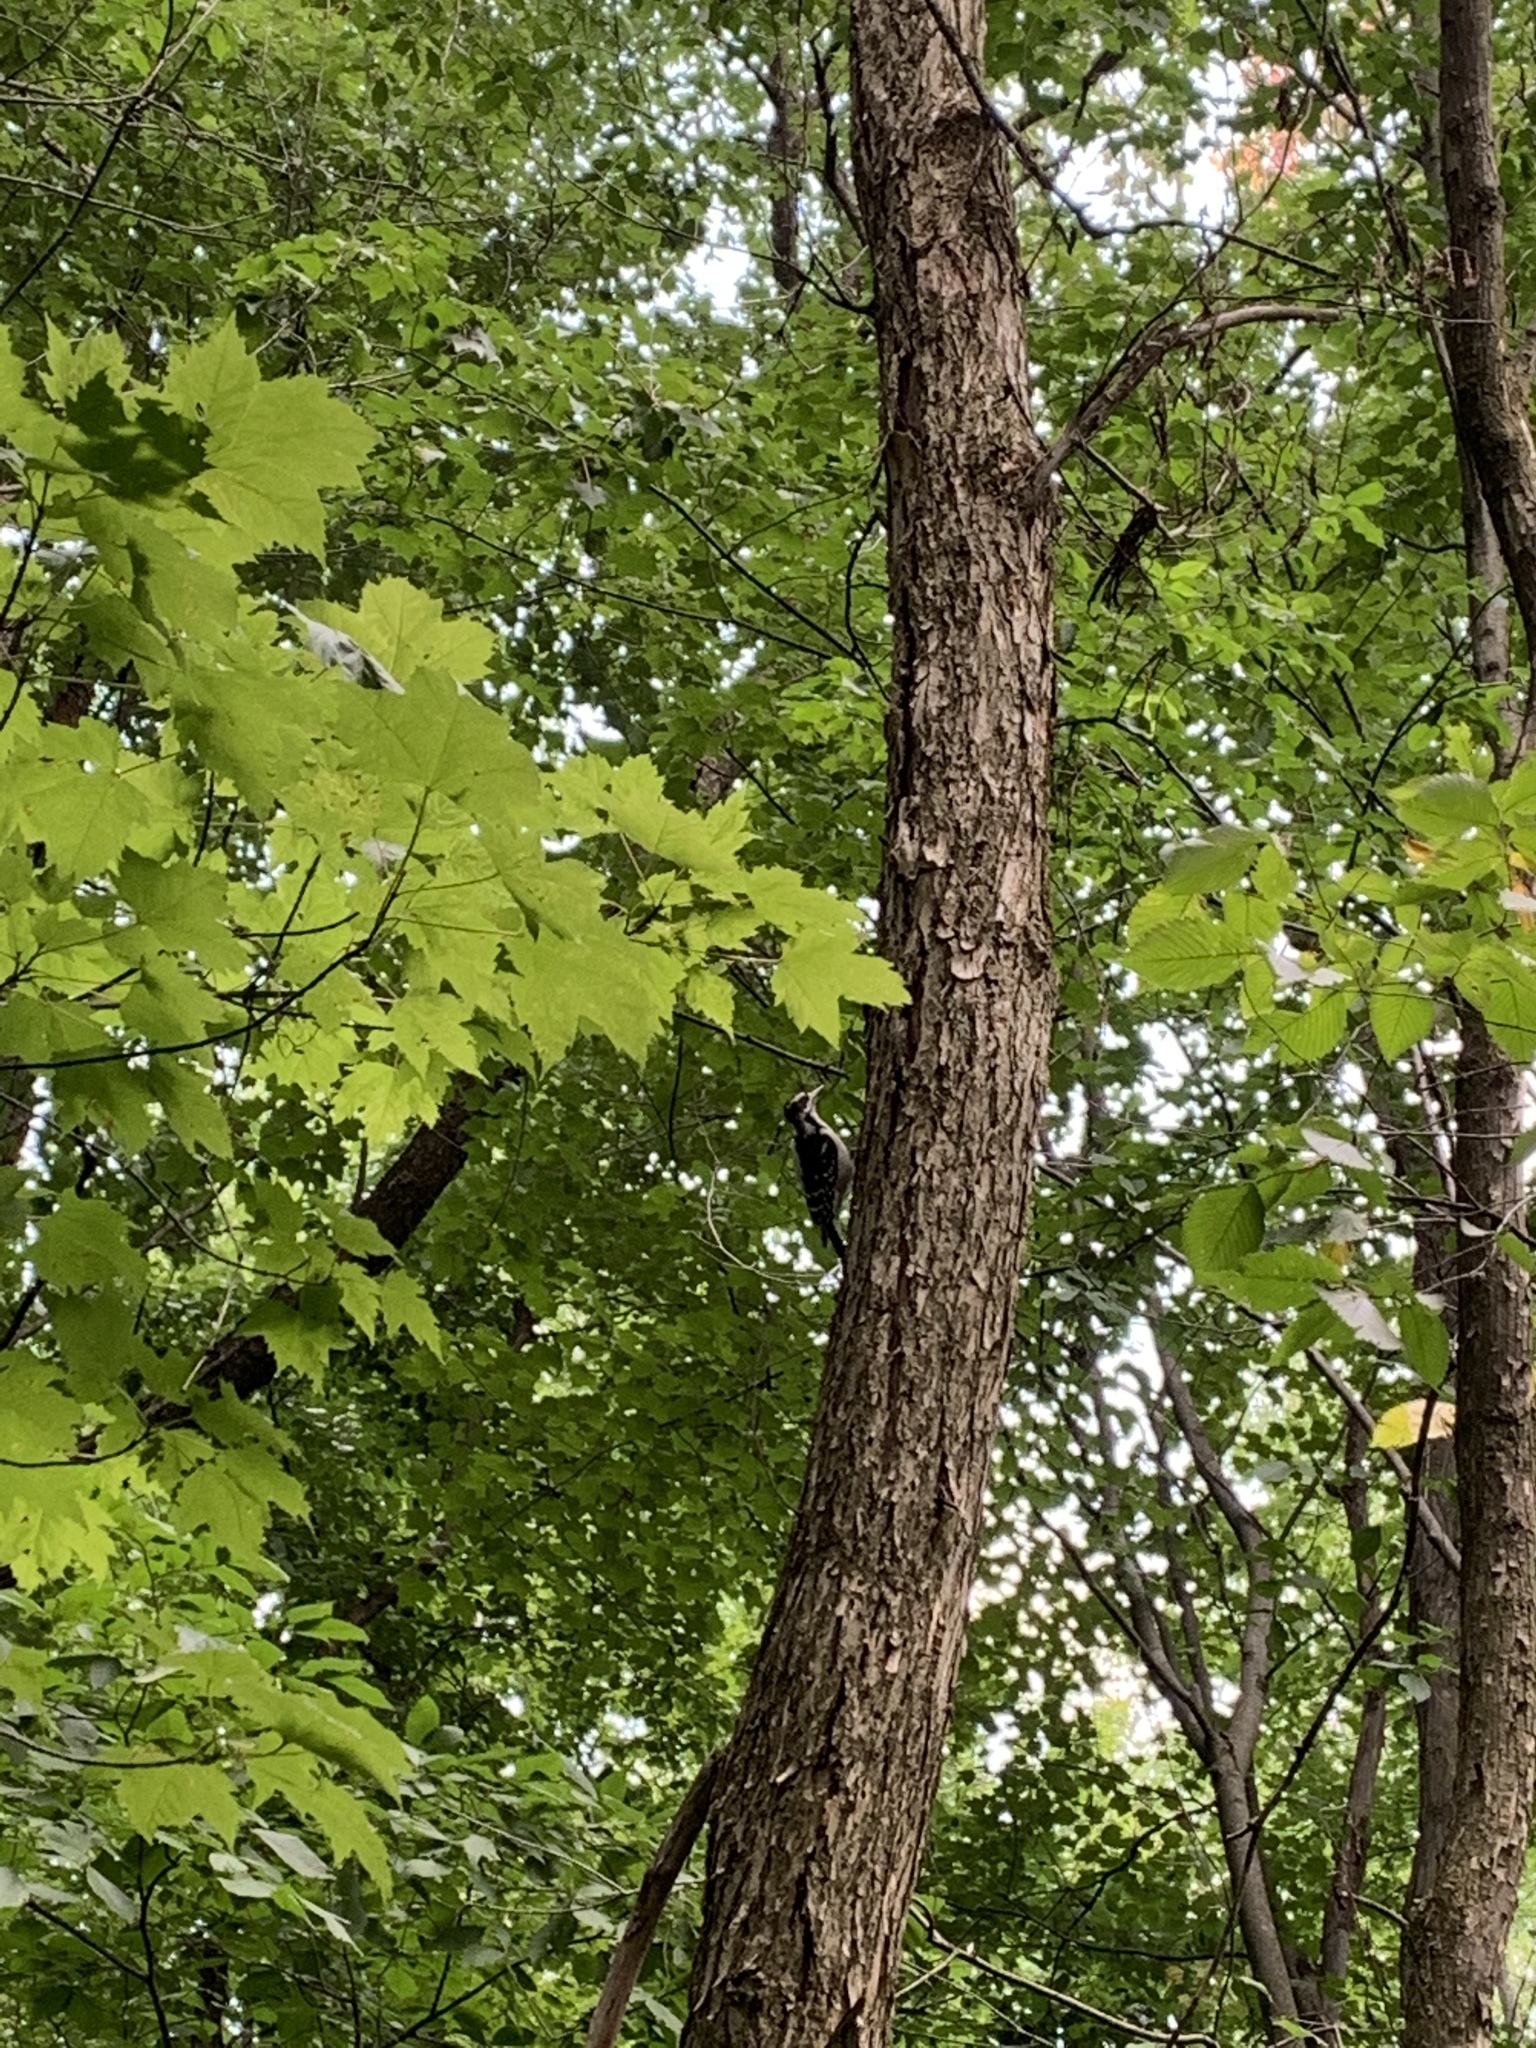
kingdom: Animalia
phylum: Chordata
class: Aves
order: Piciformes
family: Picidae
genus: Leuconotopicus
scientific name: Leuconotopicus villosus
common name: Hairy woodpecker
